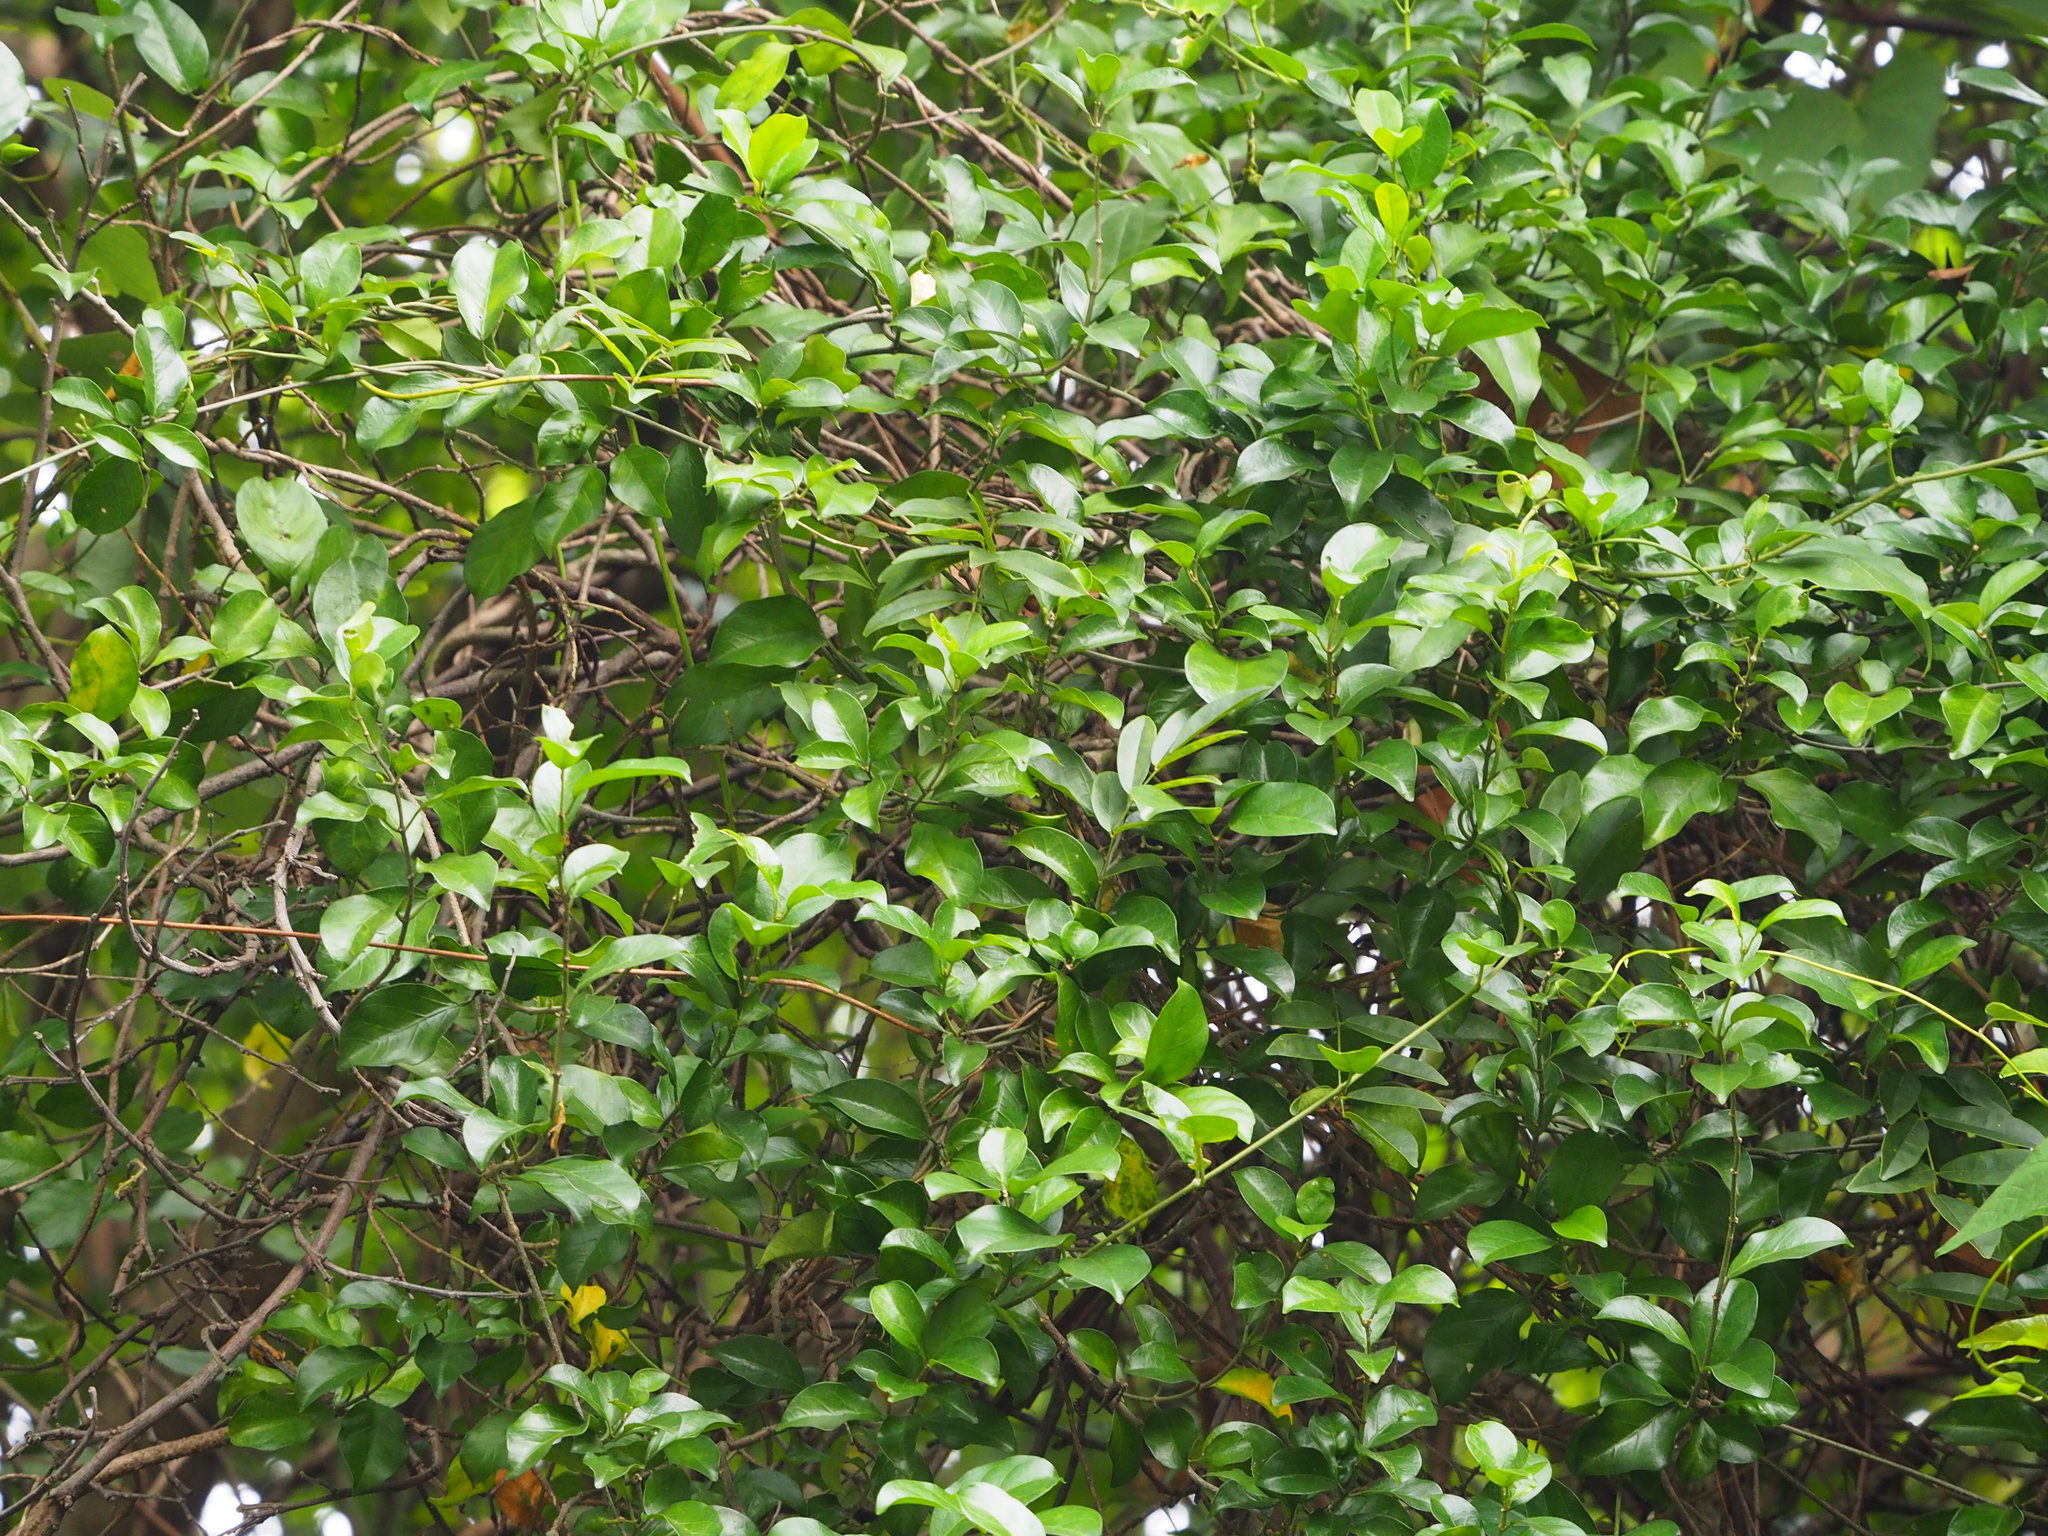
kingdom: Plantae
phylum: Tracheophyta
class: Magnoliopsida
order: Gentianales
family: Apocynaceae
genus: Gymnema
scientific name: Gymnema sylvestre
